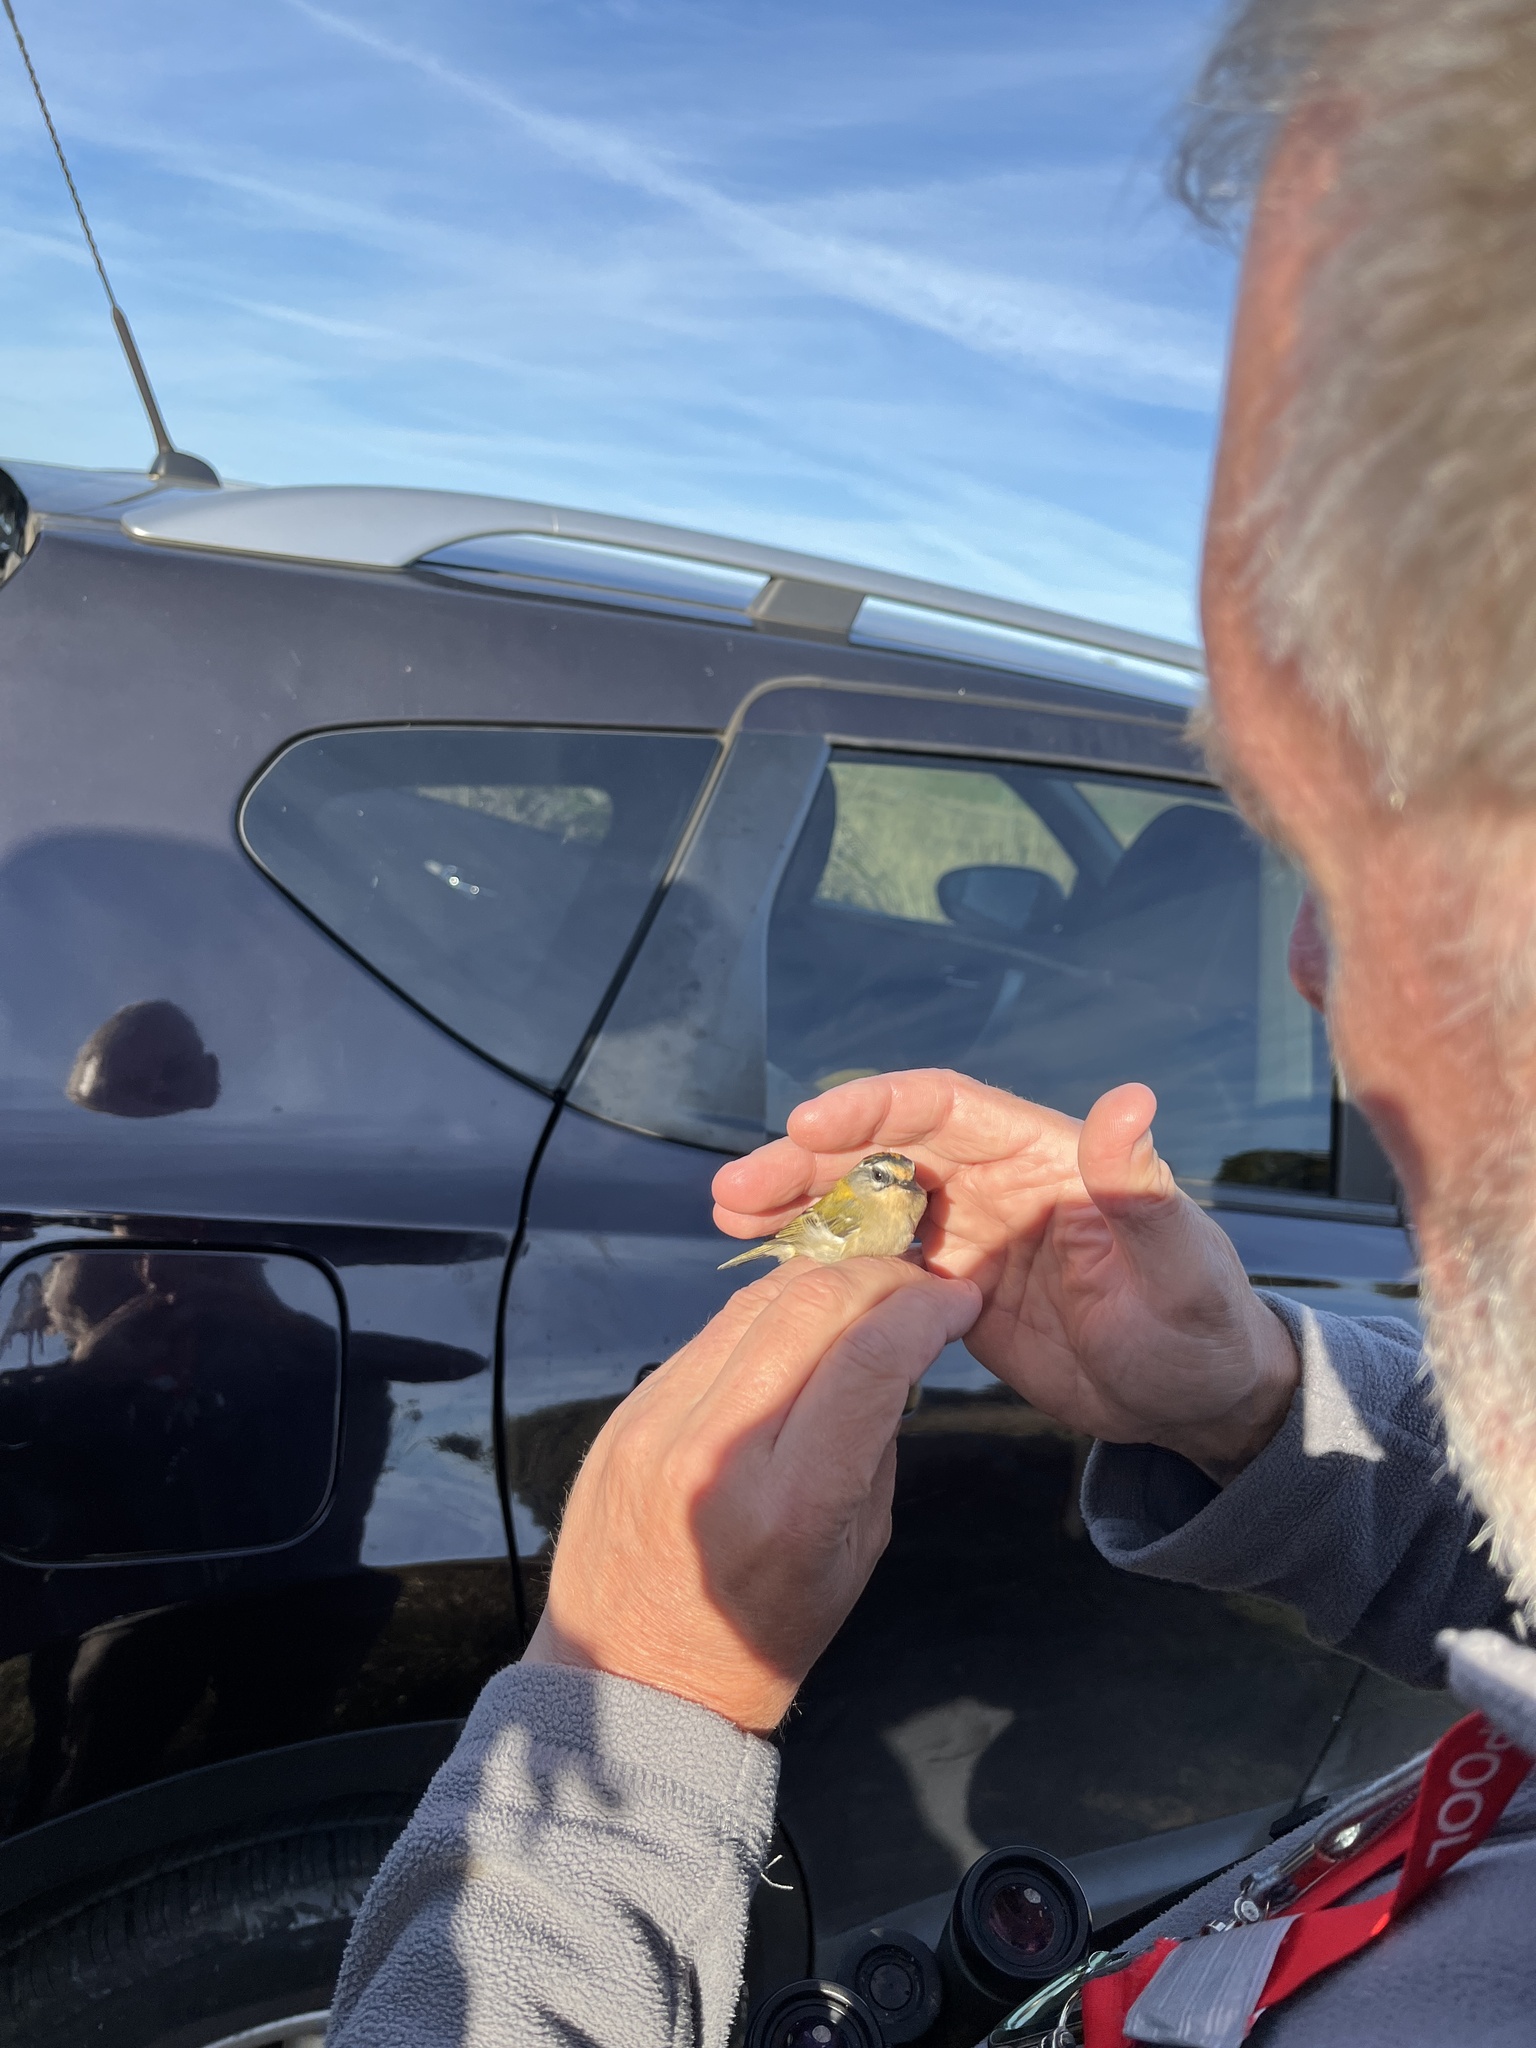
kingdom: Animalia
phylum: Chordata
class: Aves
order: Passeriformes
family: Regulidae
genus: Regulus
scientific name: Regulus ignicapilla
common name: Firecrest
